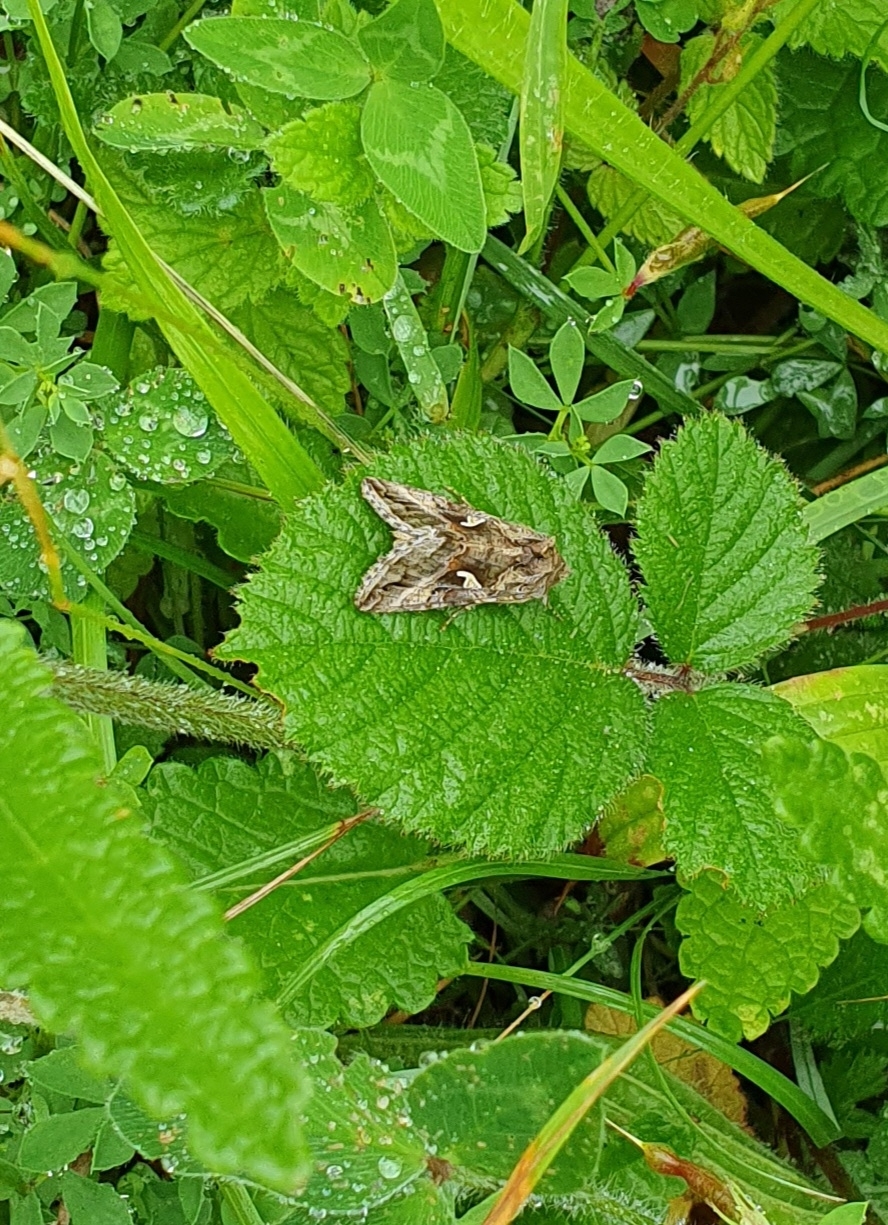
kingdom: Animalia
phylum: Arthropoda
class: Insecta
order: Lepidoptera
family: Noctuidae
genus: Autographa
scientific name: Autographa gamma
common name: Silver y
